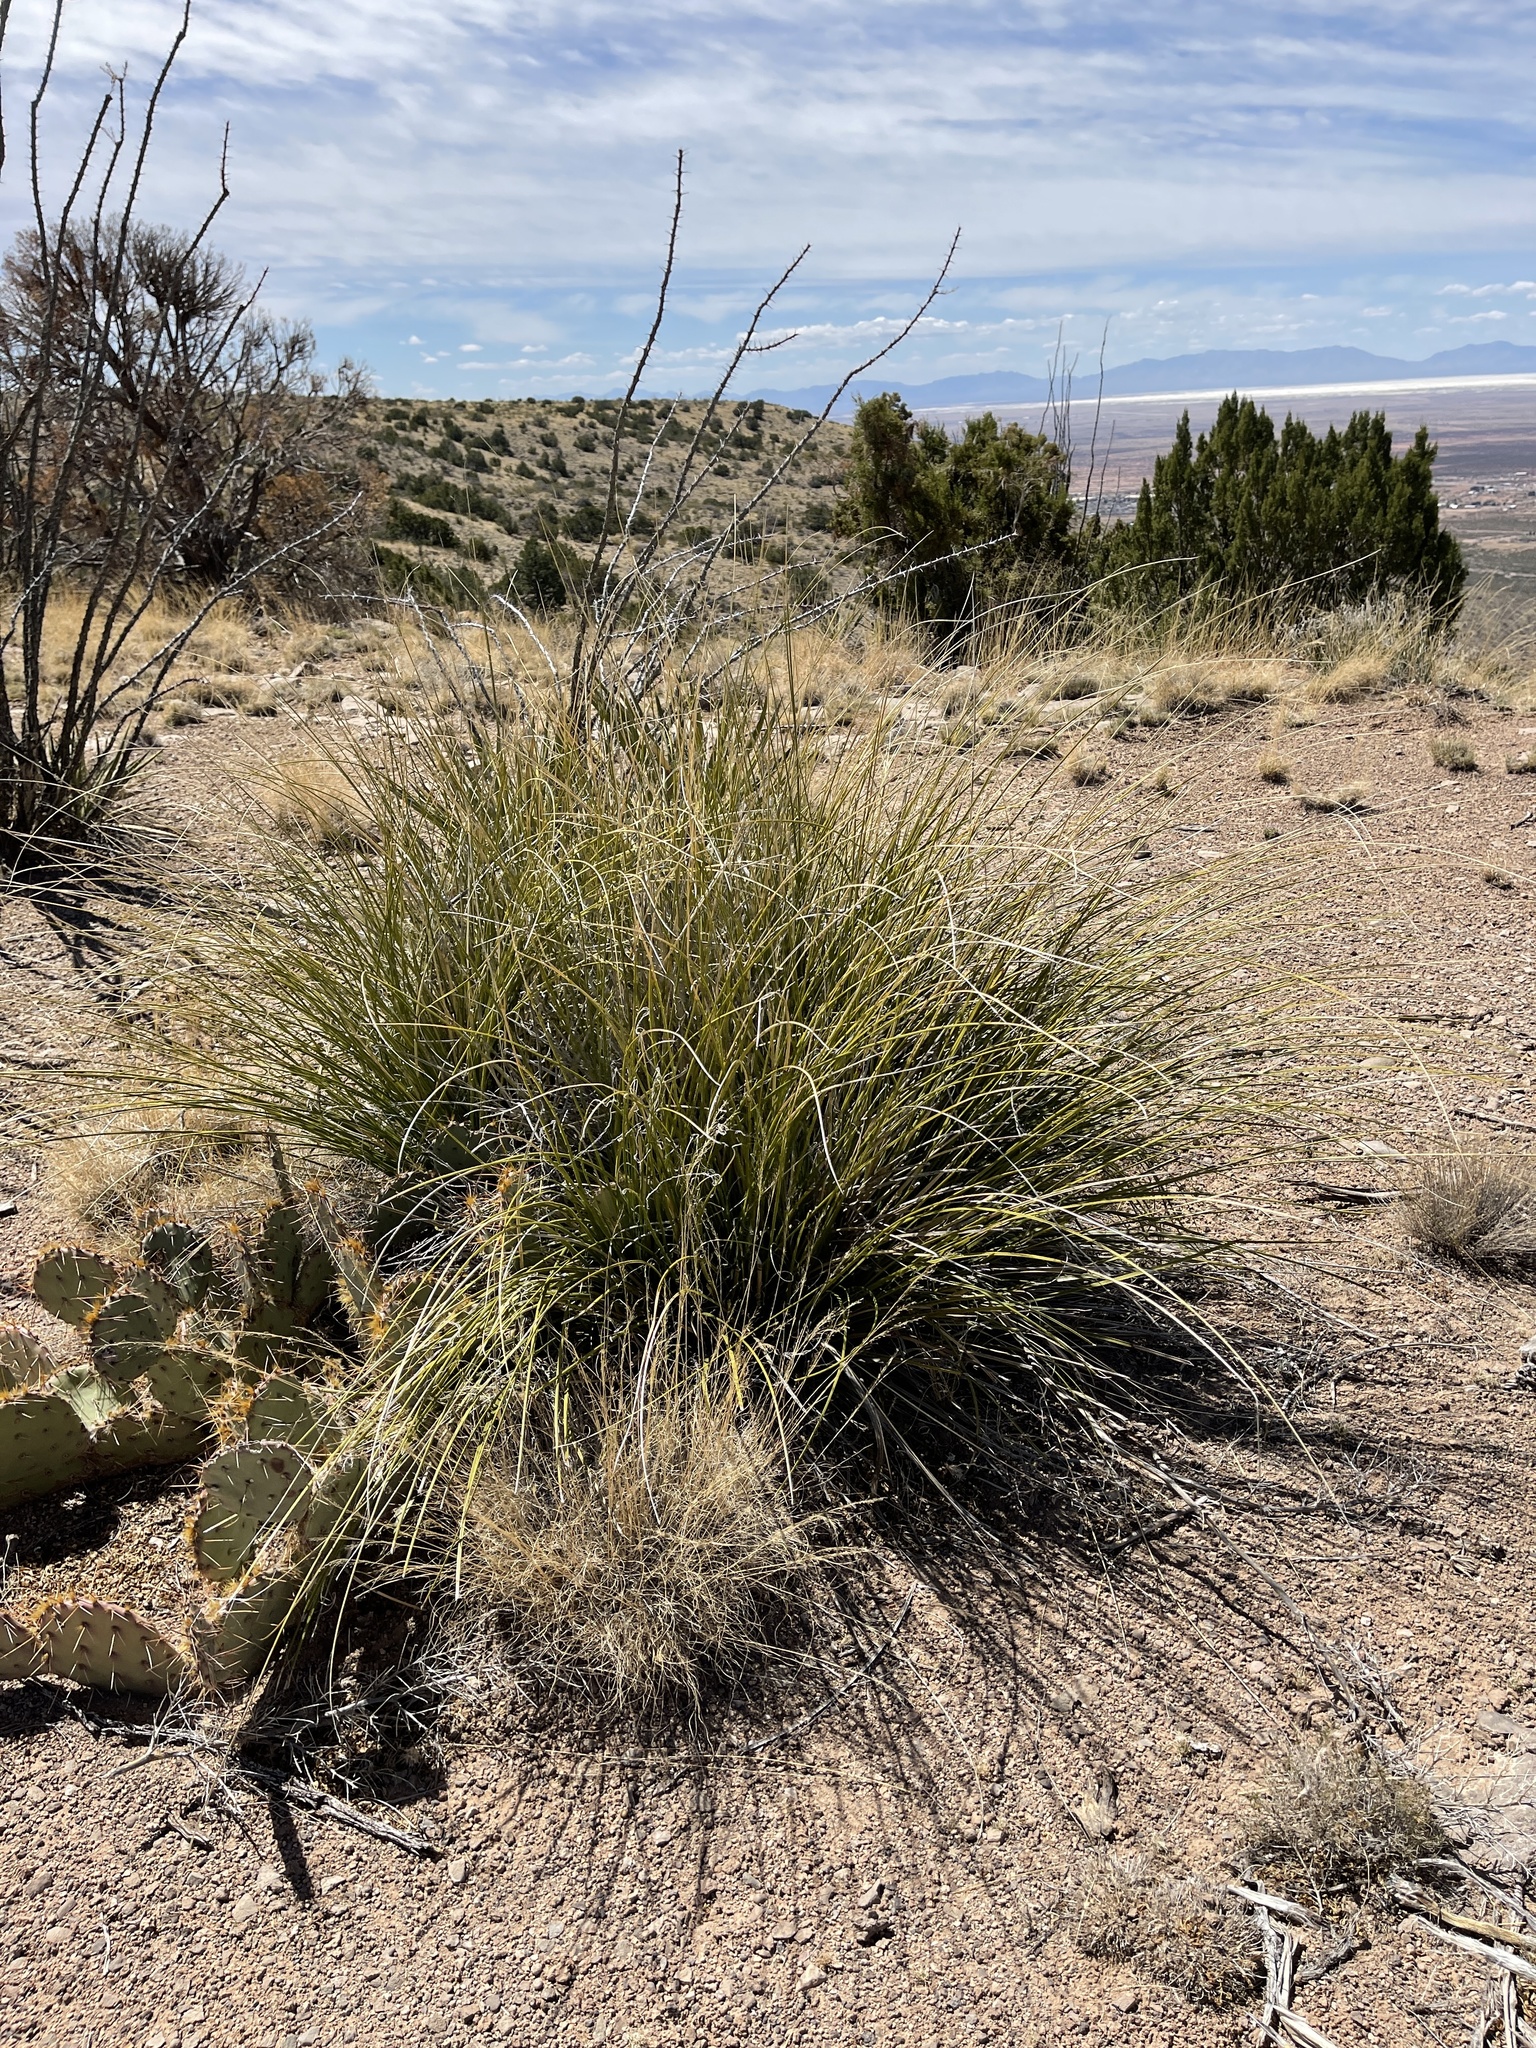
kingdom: Plantae
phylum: Tracheophyta
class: Liliopsida
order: Asparagales
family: Asparagaceae
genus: Nolina
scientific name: Nolina microcarpa
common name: Bear-grass
